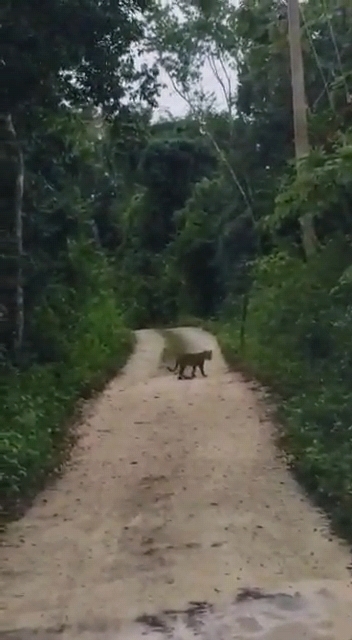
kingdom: Animalia
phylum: Chordata
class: Mammalia
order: Carnivora
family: Felidae
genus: Panthera
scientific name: Panthera onca
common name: Jaguar
